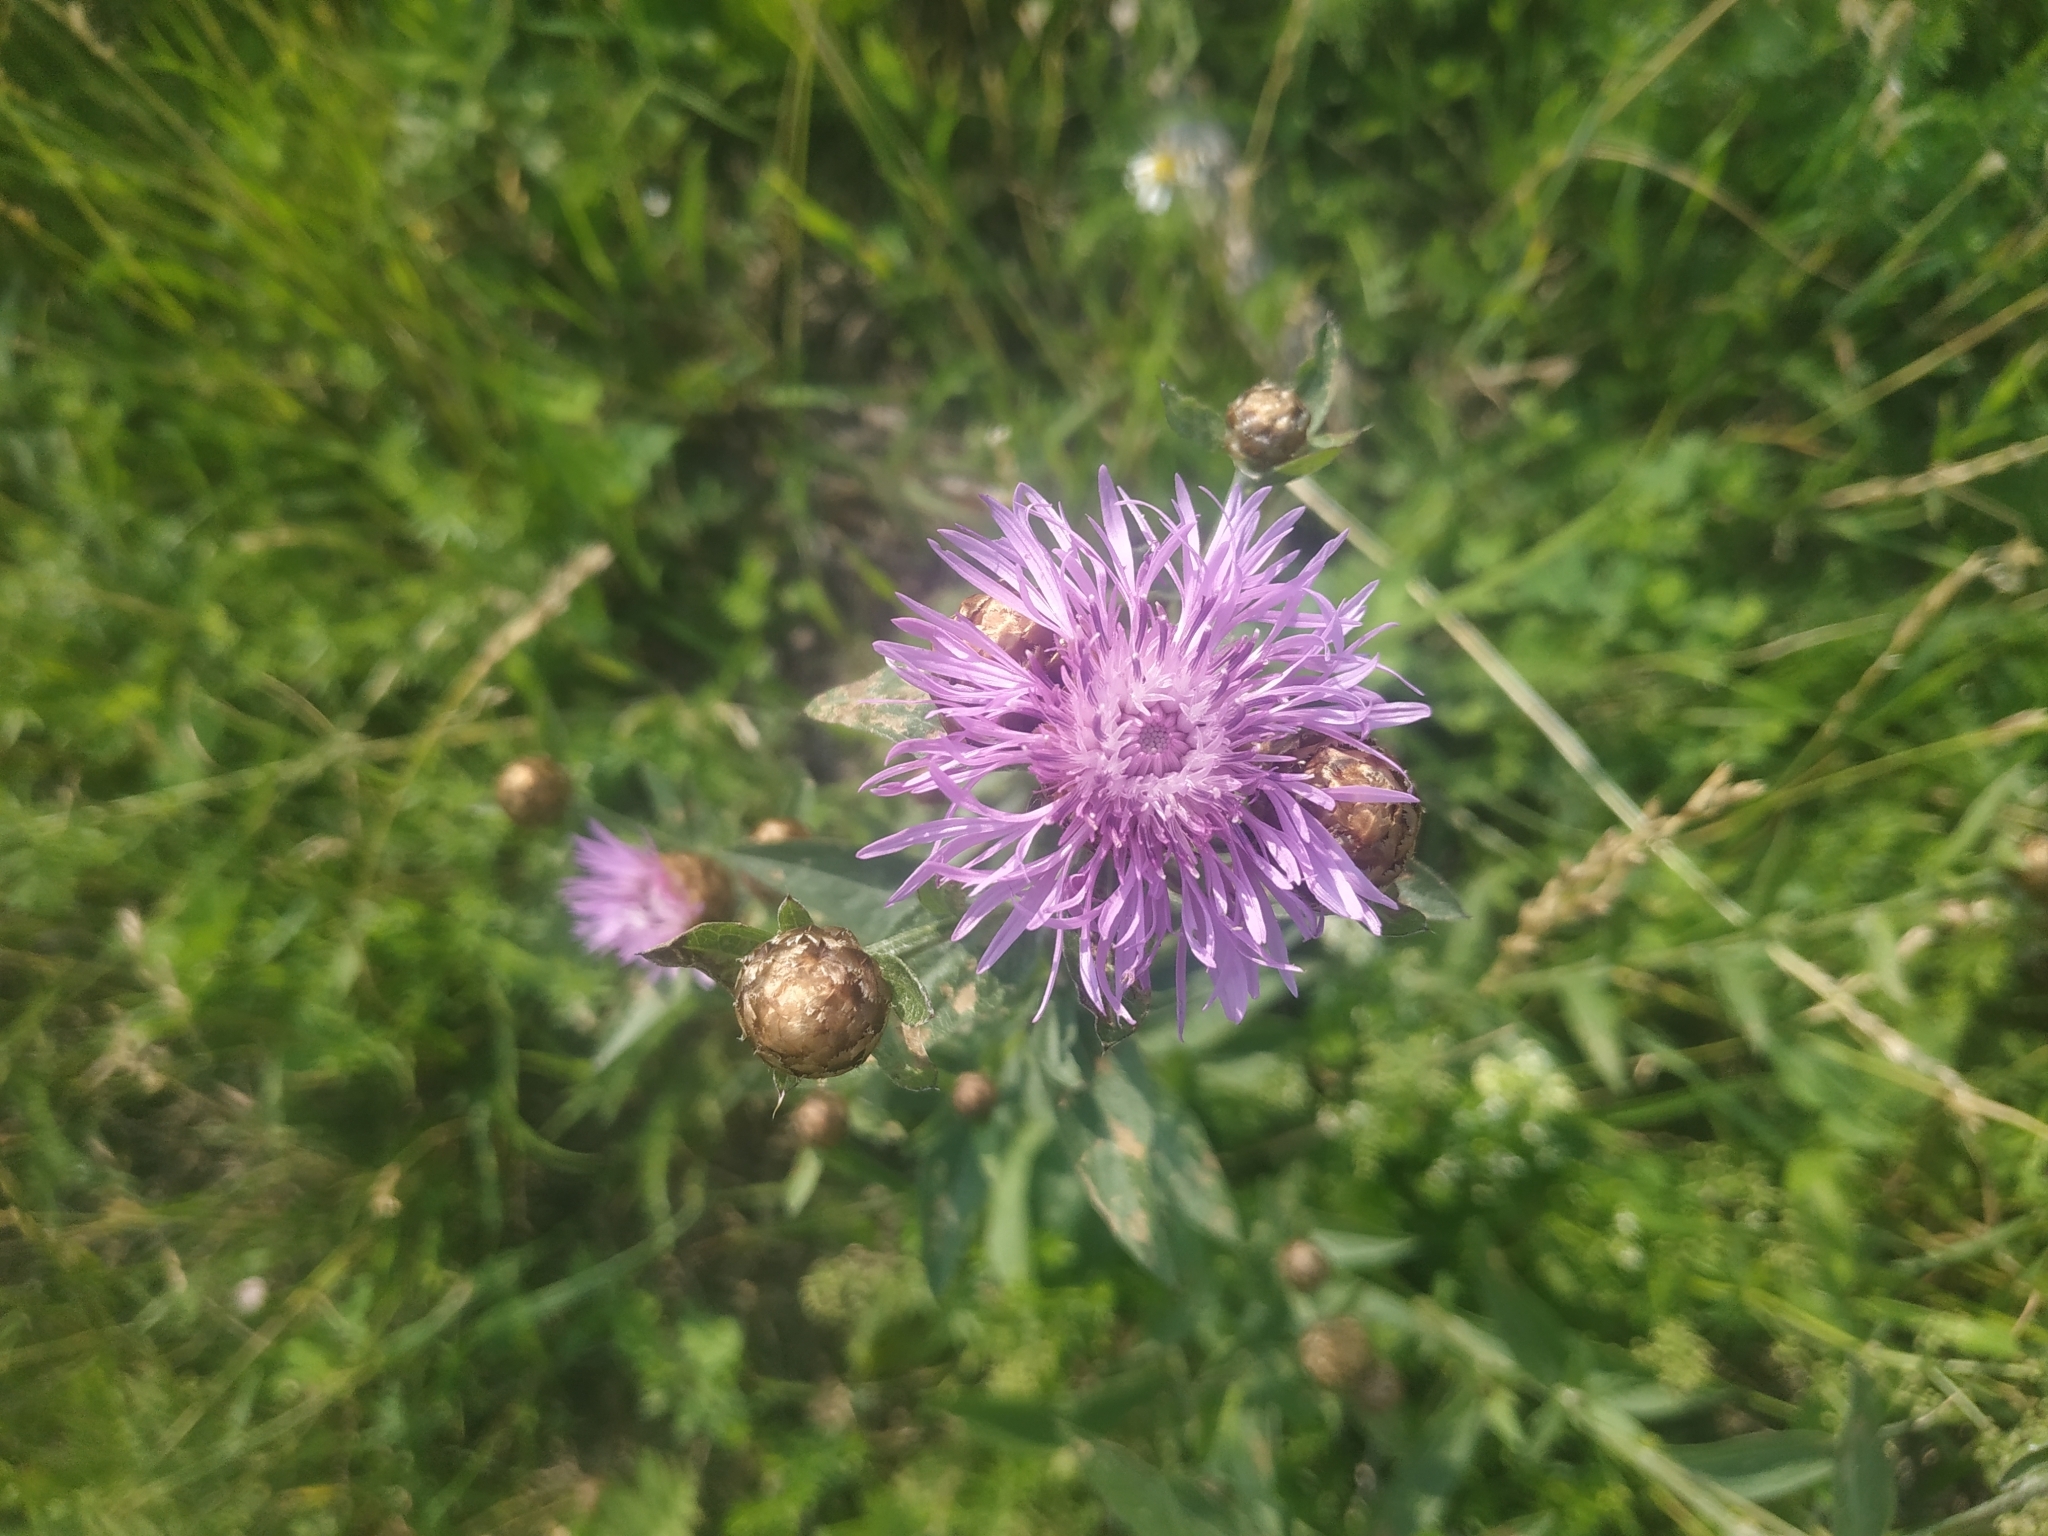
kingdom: Plantae
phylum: Tracheophyta
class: Magnoliopsida
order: Asterales
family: Asteraceae
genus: Centaurea
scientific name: Centaurea jacea
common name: Brown knapweed
